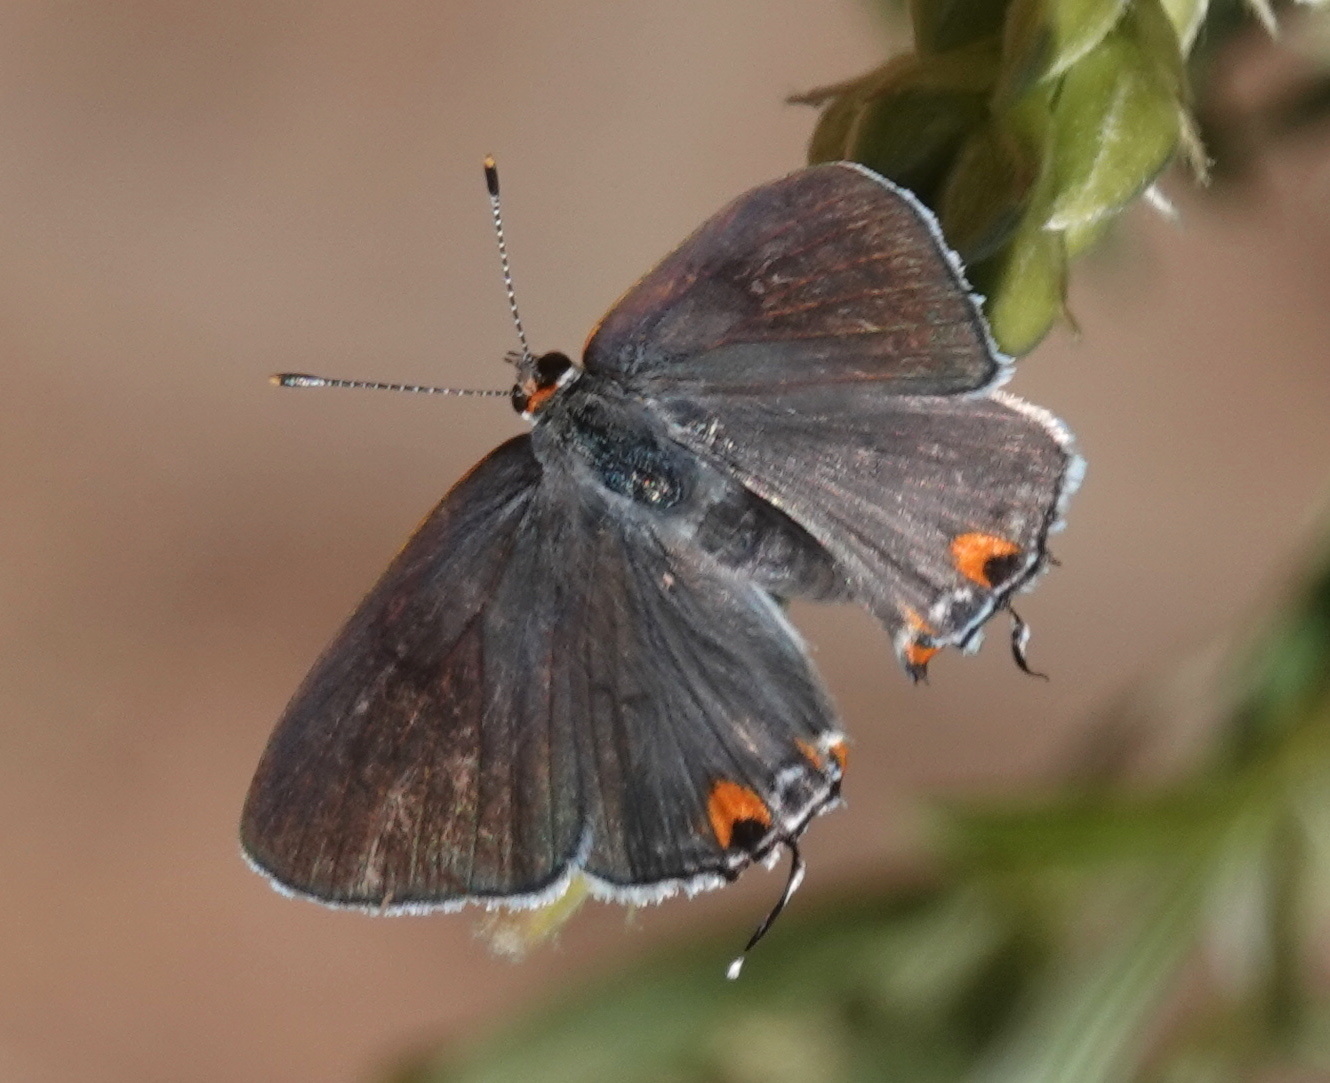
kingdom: Animalia
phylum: Arthropoda
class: Insecta
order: Lepidoptera
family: Lycaenidae
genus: Strymon
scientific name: Strymon melinus
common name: Gray hairstreak
